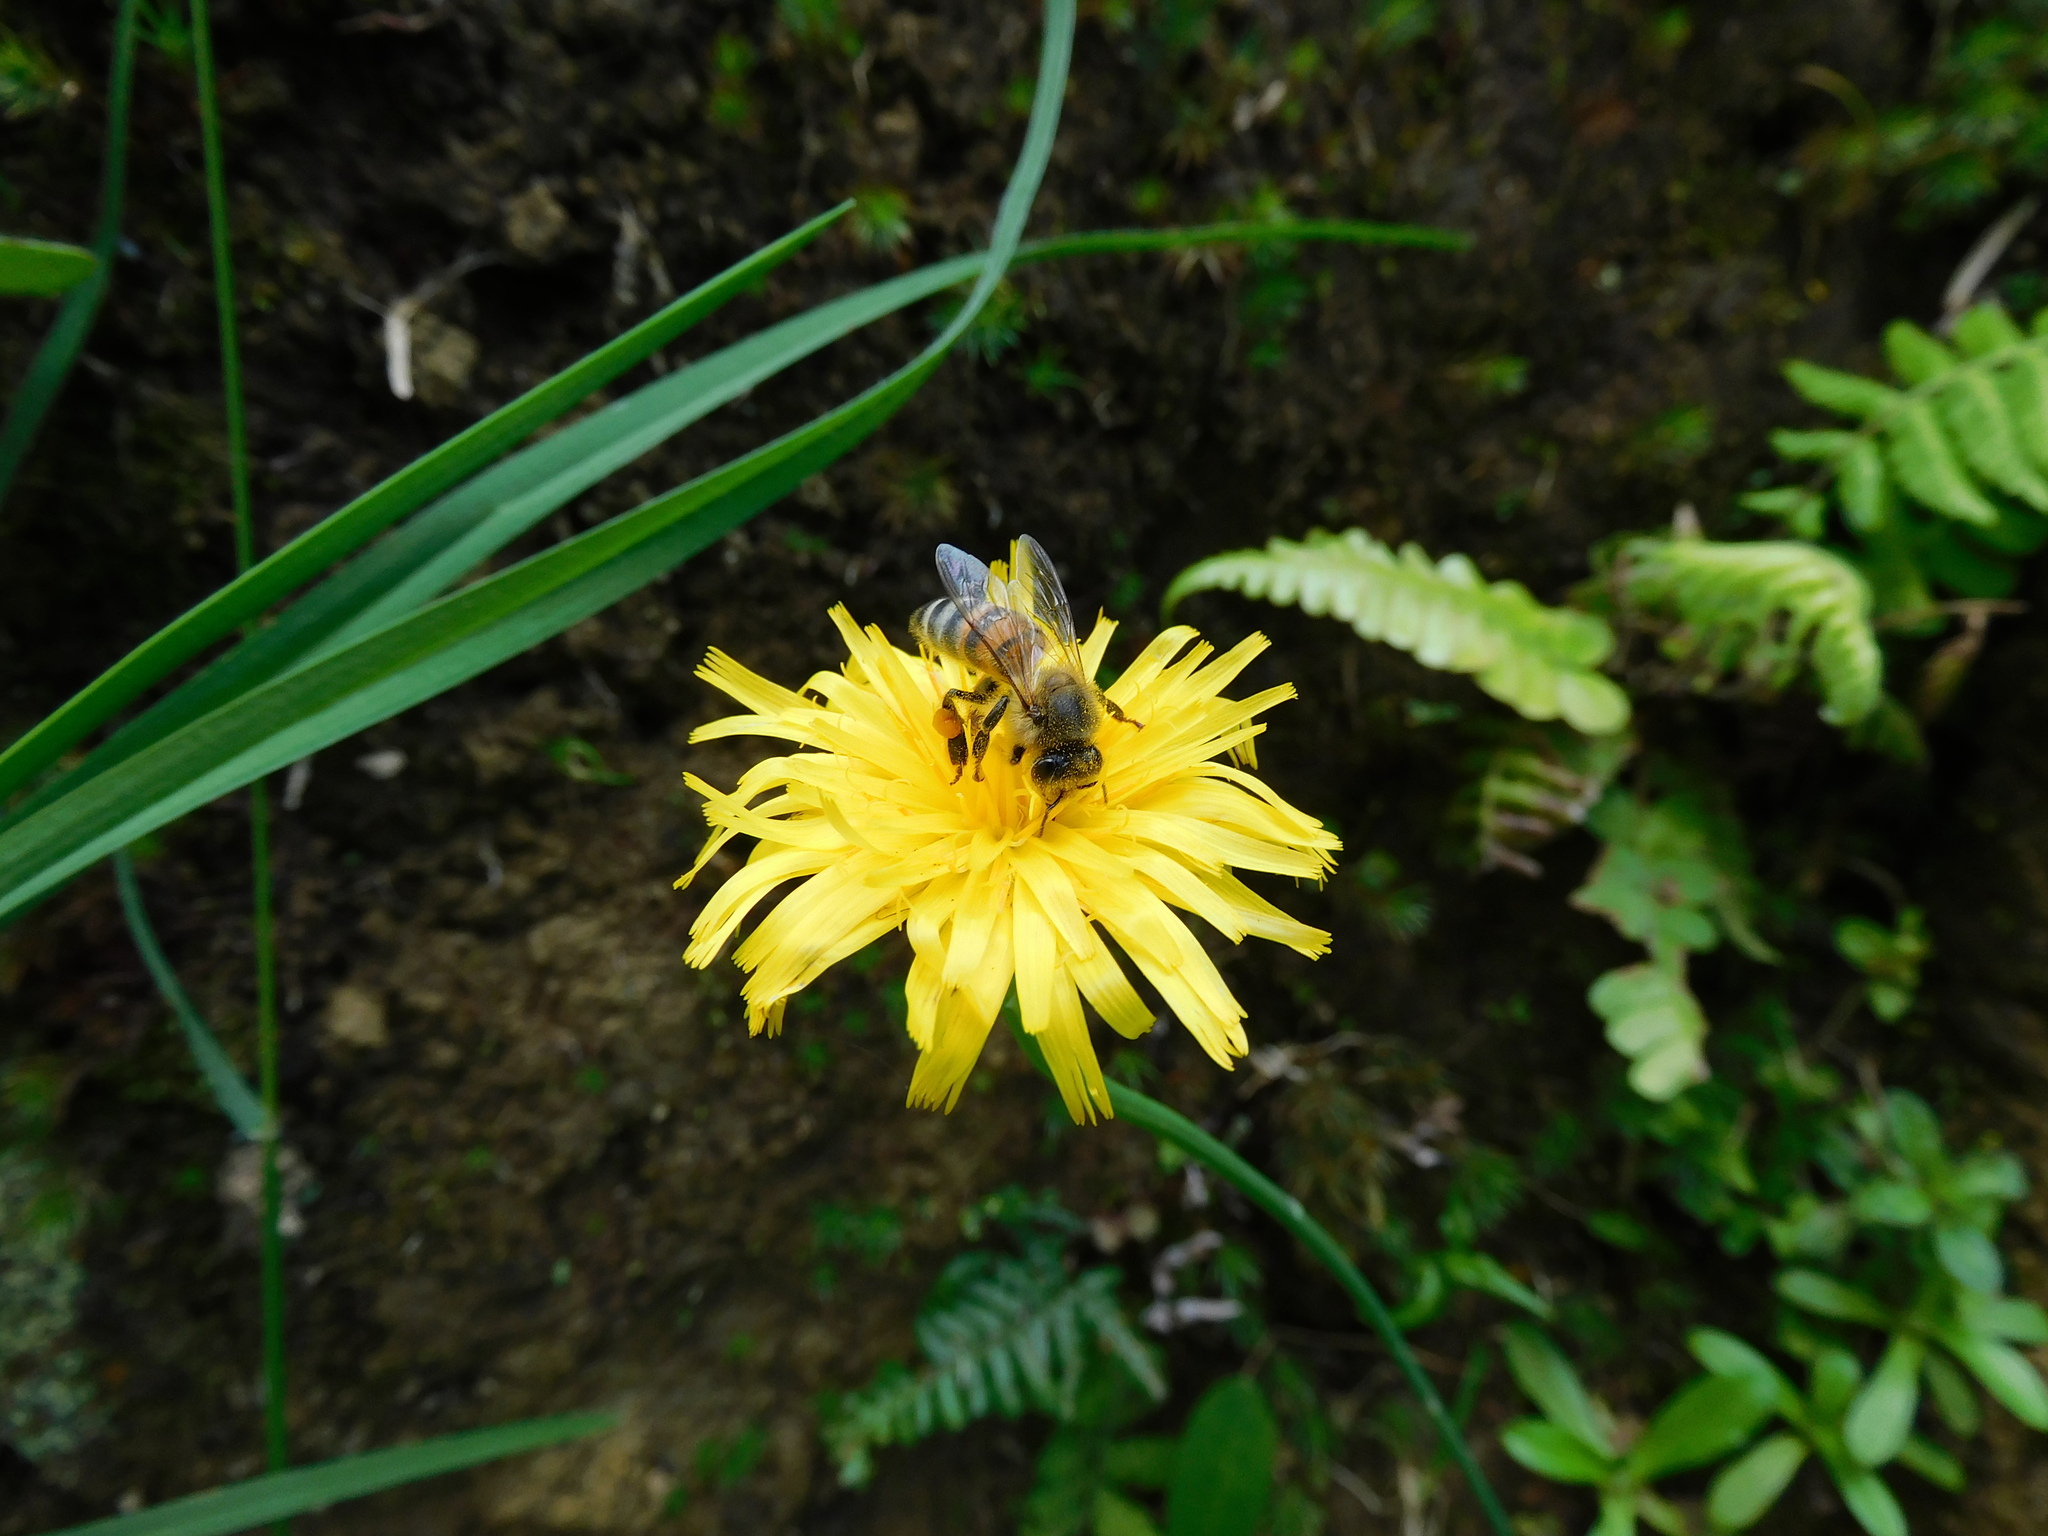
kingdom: Animalia
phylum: Arthropoda
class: Insecta
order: Hymenoptera
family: Apidae
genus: Apis
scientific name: Apis mellifera
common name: Honey bee
